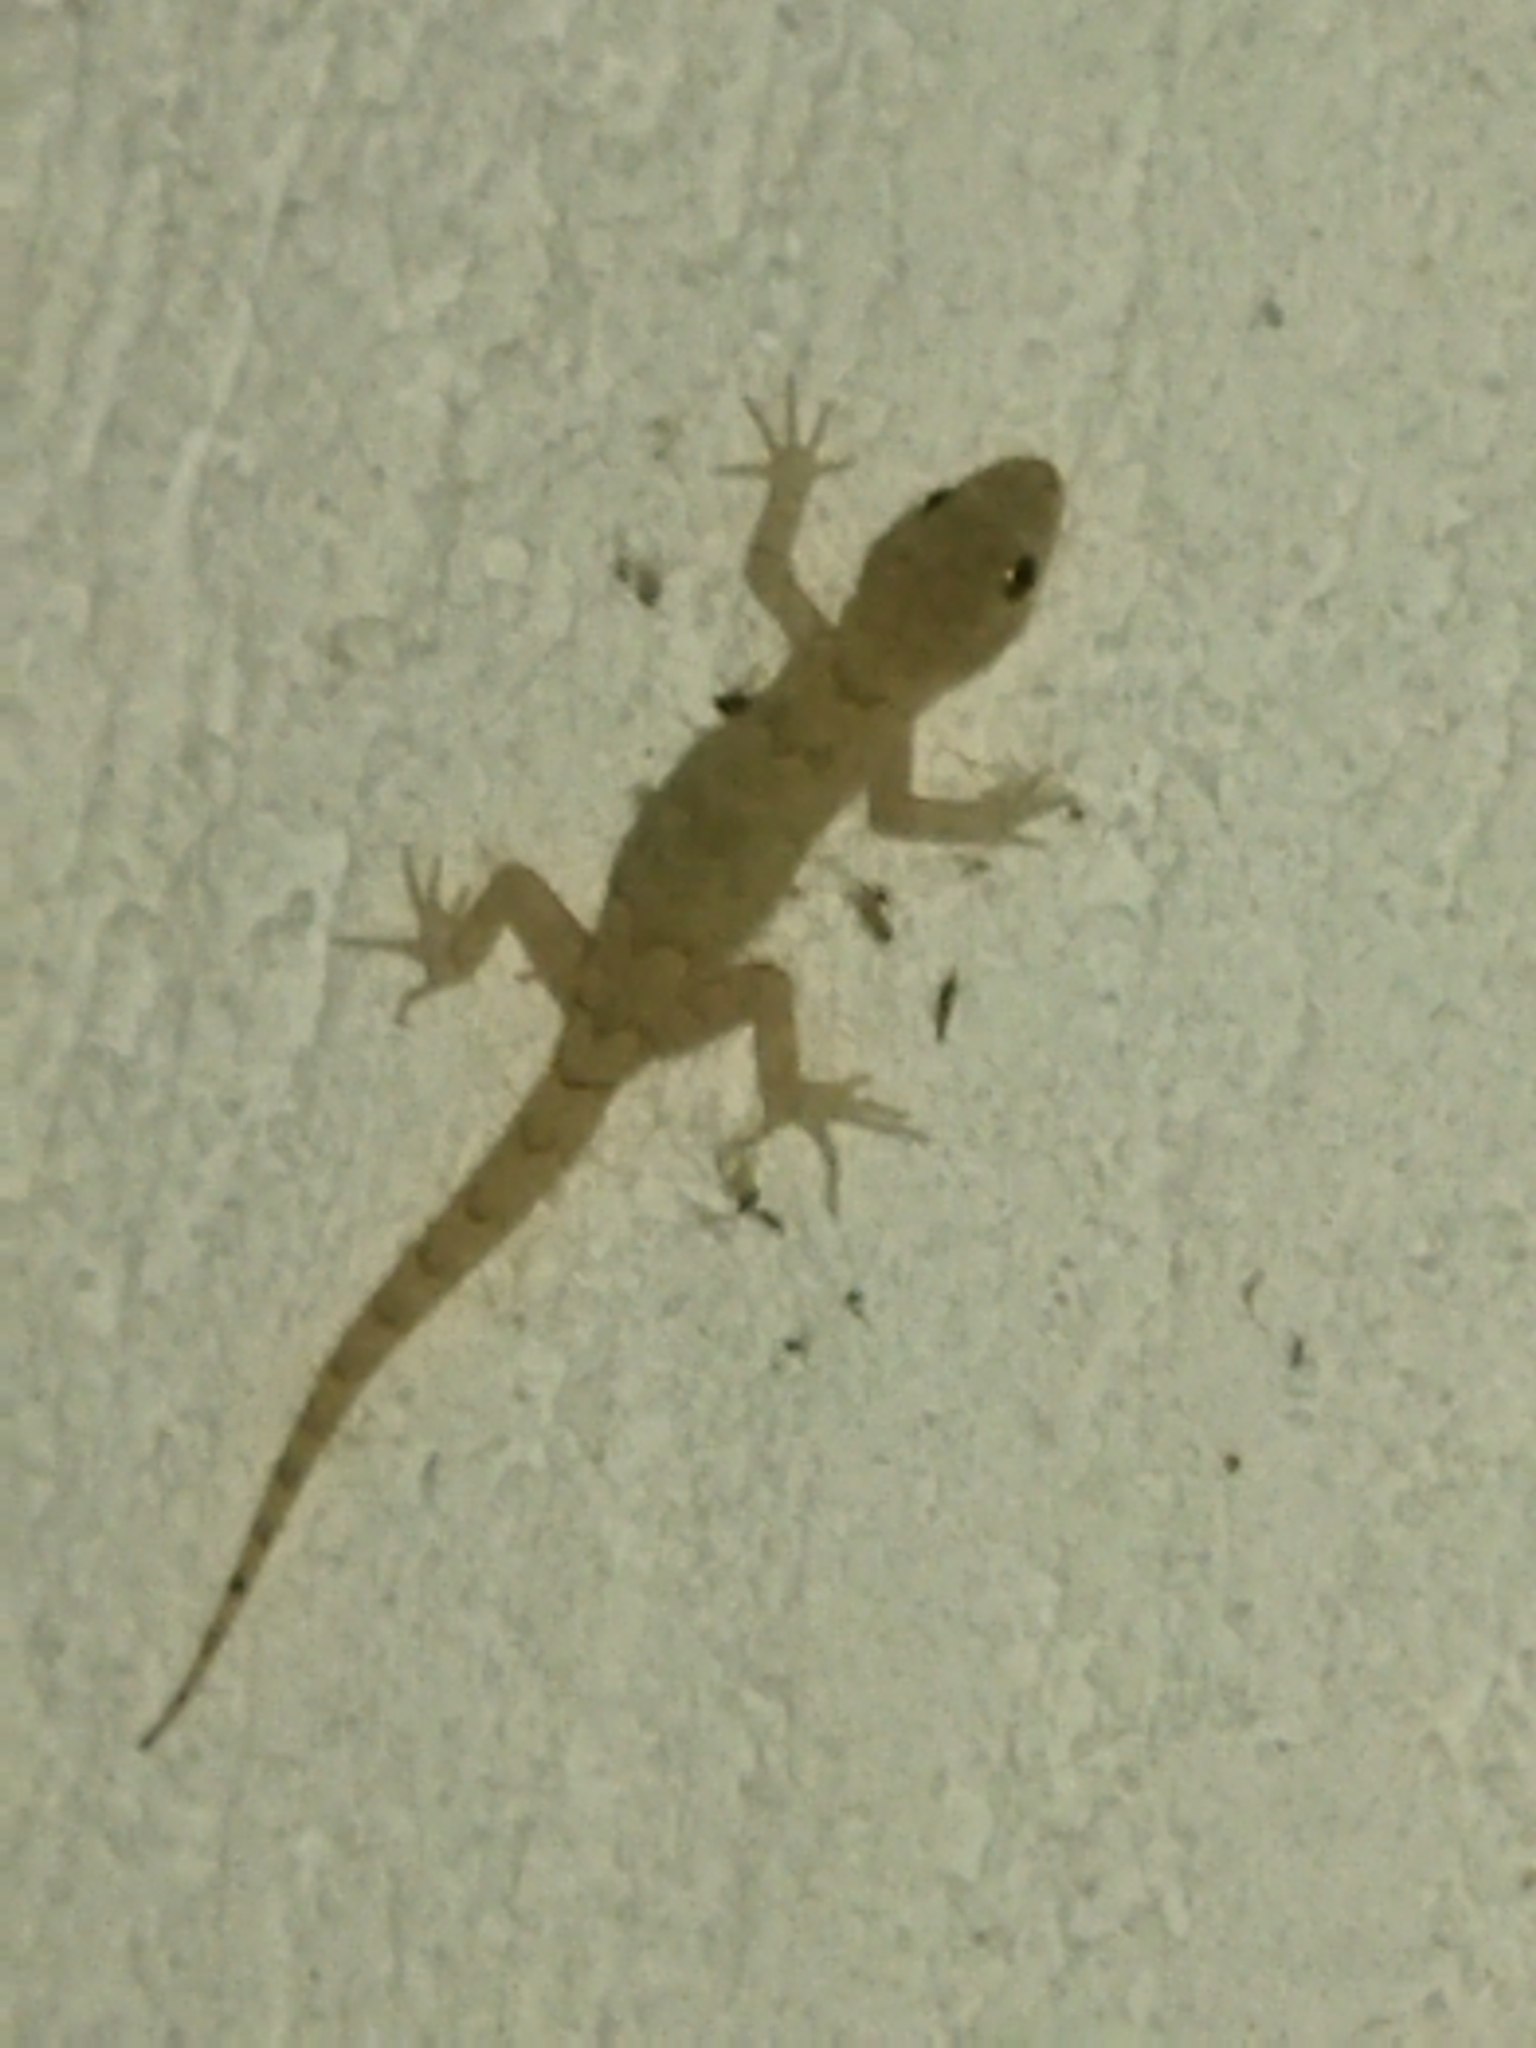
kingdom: Animalia
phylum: Chordata
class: Squamata
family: Gekkonidae
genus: Mediodactylus
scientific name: Mediodactylus kotschyi
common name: Kotschy's gecko
